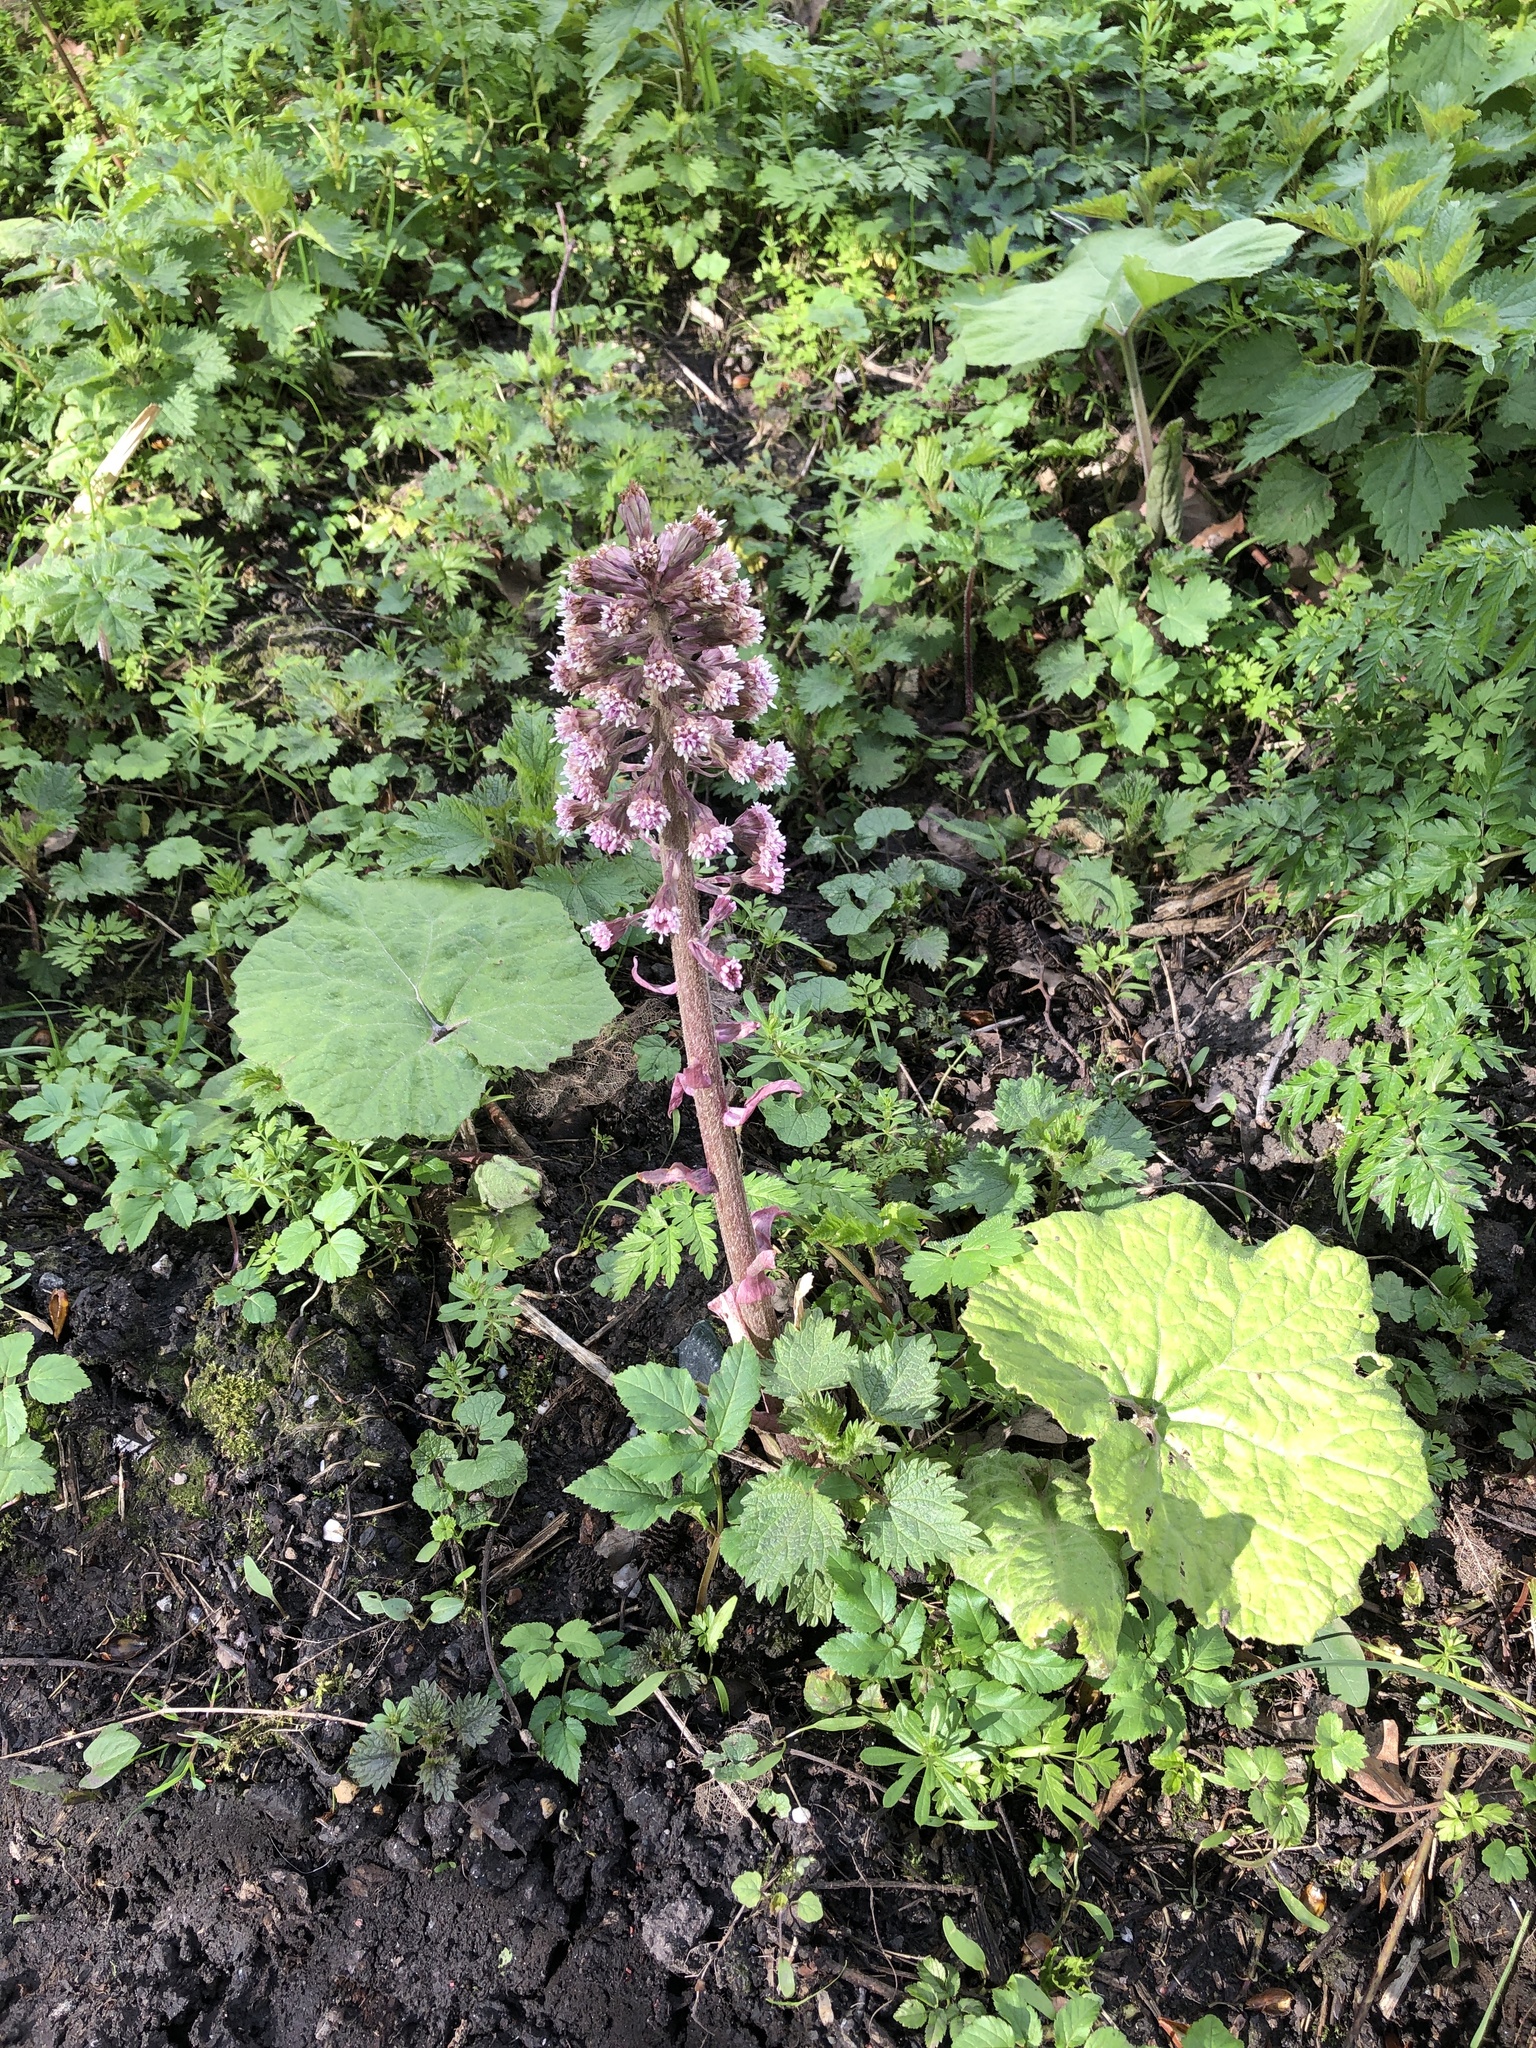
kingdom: Plantae
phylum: Tracheophyta
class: Magnoliopsida
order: Asterales
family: Asteraceae
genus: Petasites
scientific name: Petasites hybridus
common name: Butterbur
